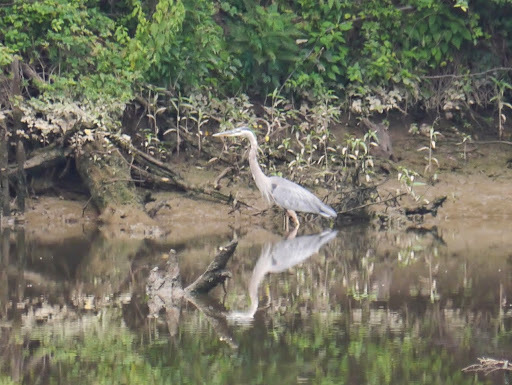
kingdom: Animalia
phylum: Chordata
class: Aves
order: Pelecaniformes
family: Ardeidae
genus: Ardea
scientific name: Ardea herodias
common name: Great blue heron
